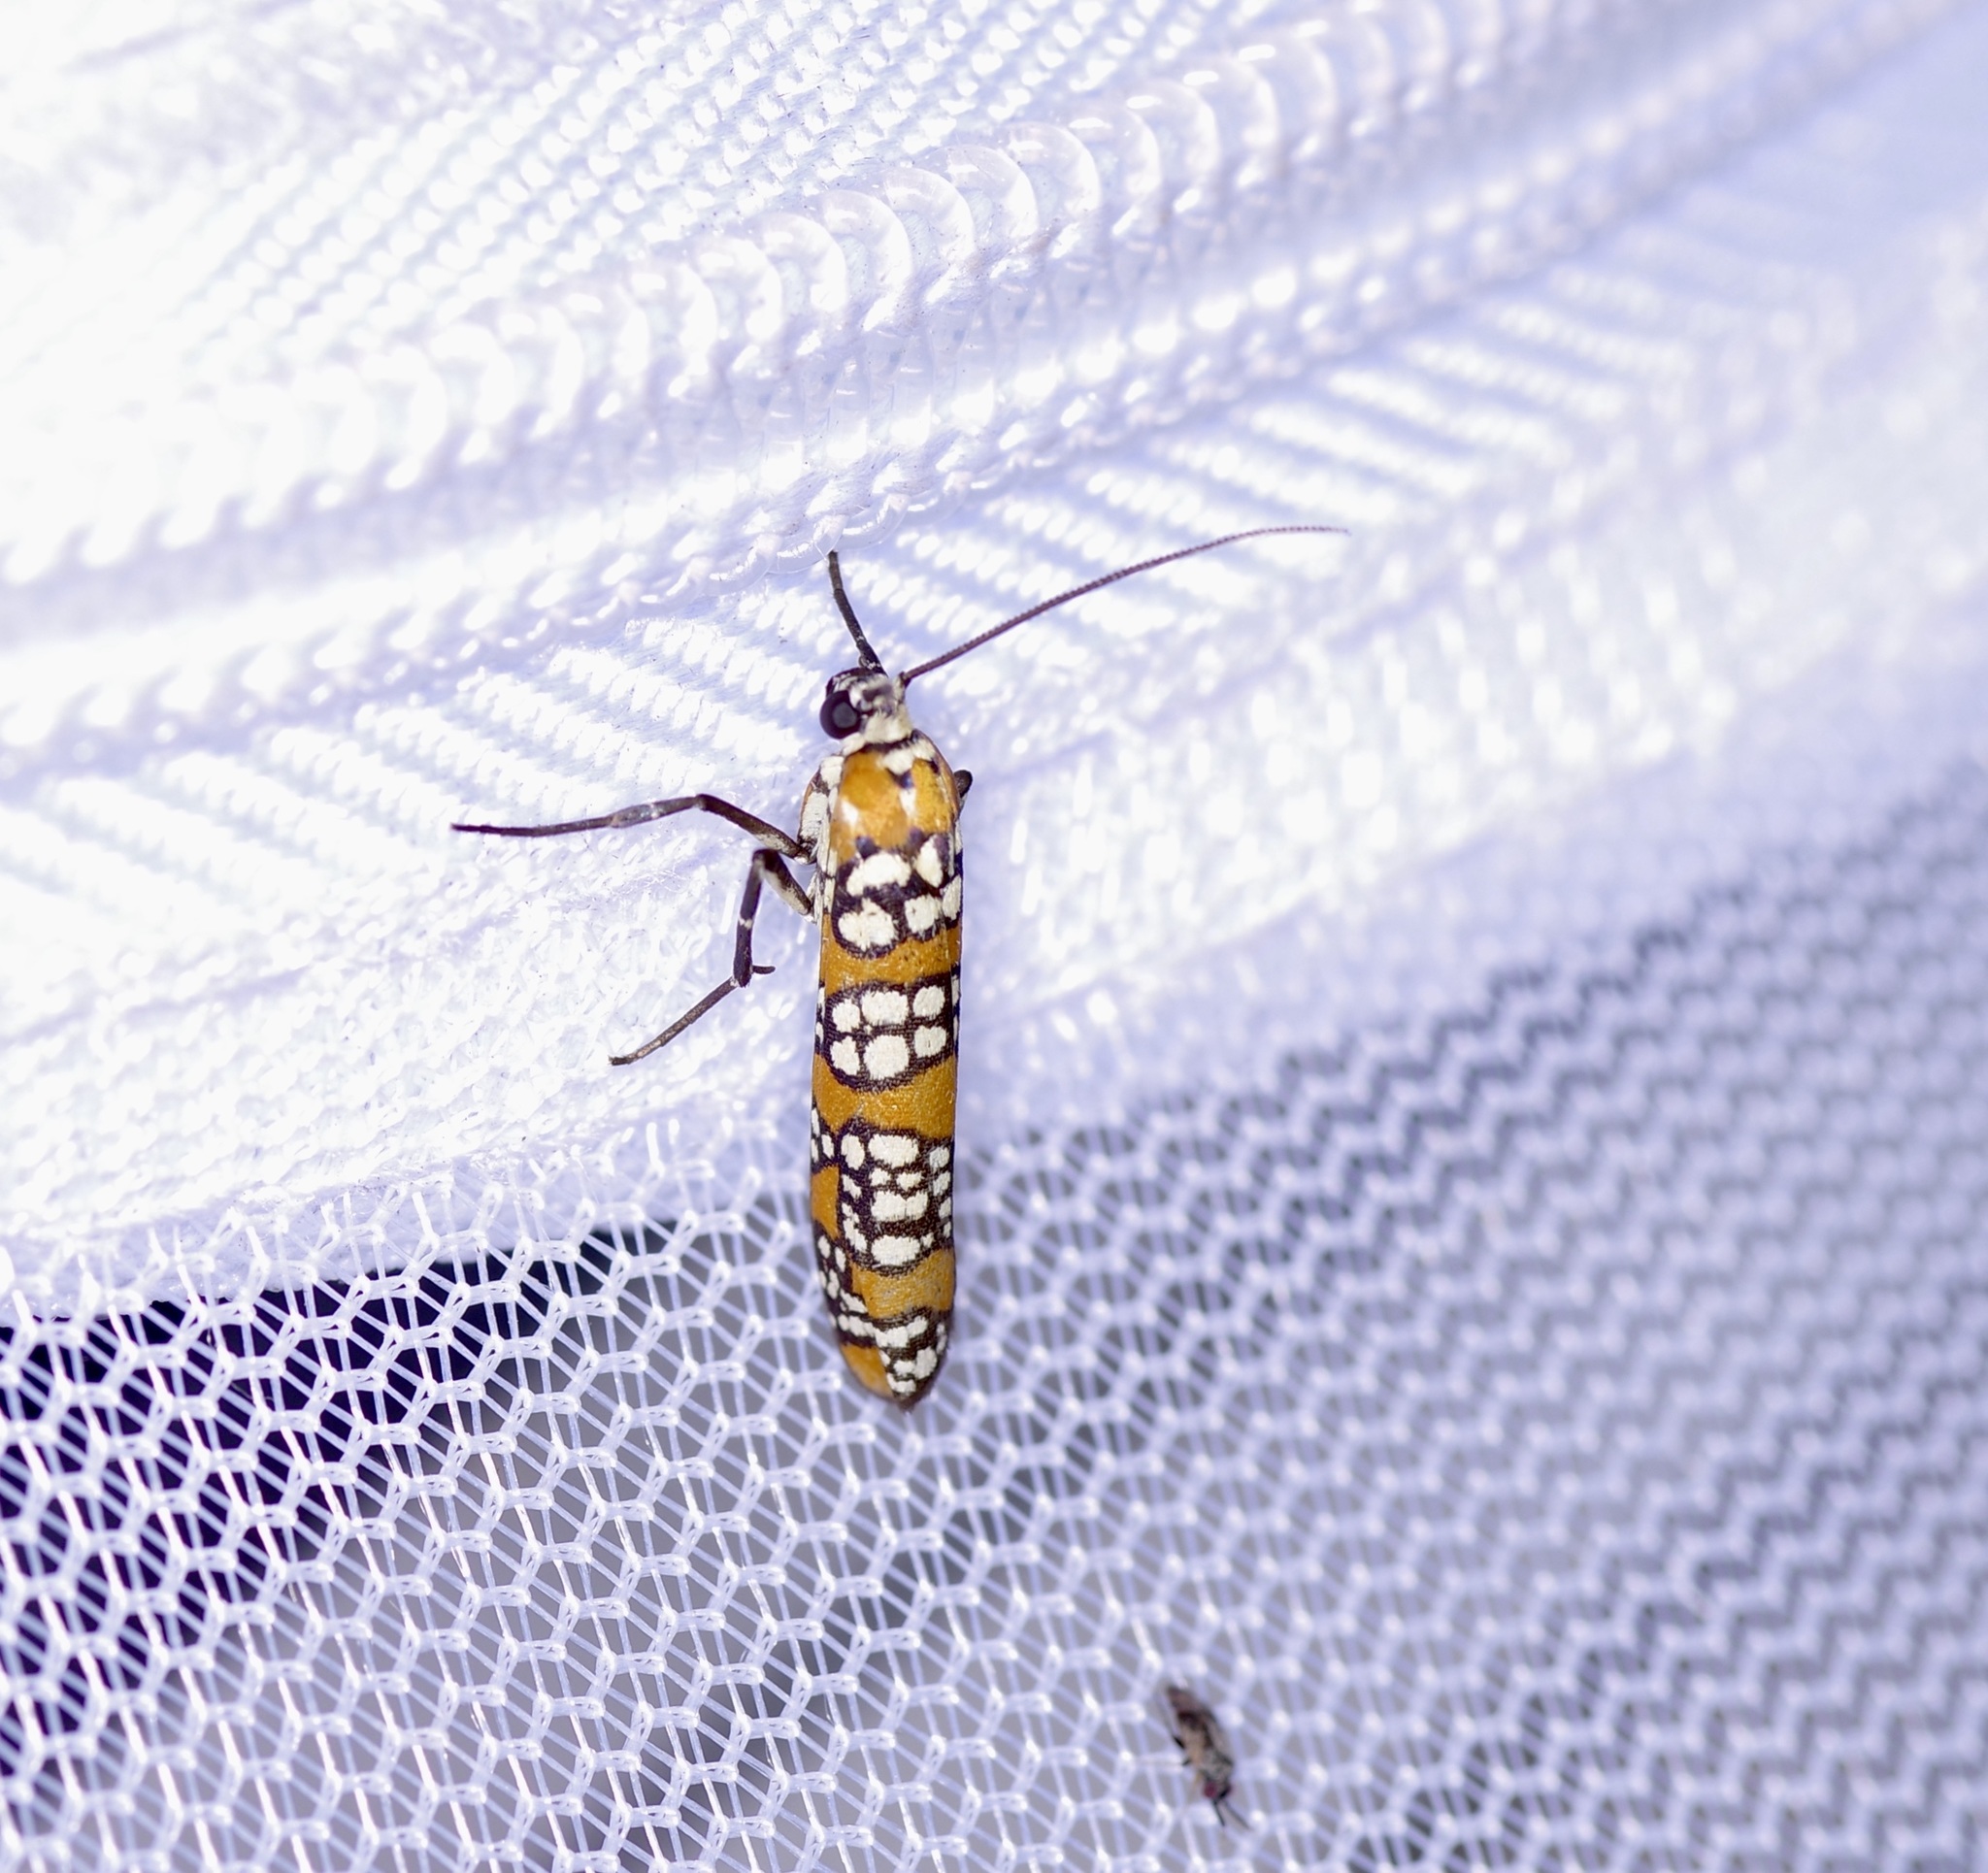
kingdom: Animalia
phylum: Arthropoda
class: Insecta
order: Lepidoptera
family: Attevidae
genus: Atteva
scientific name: Atteva punctella
